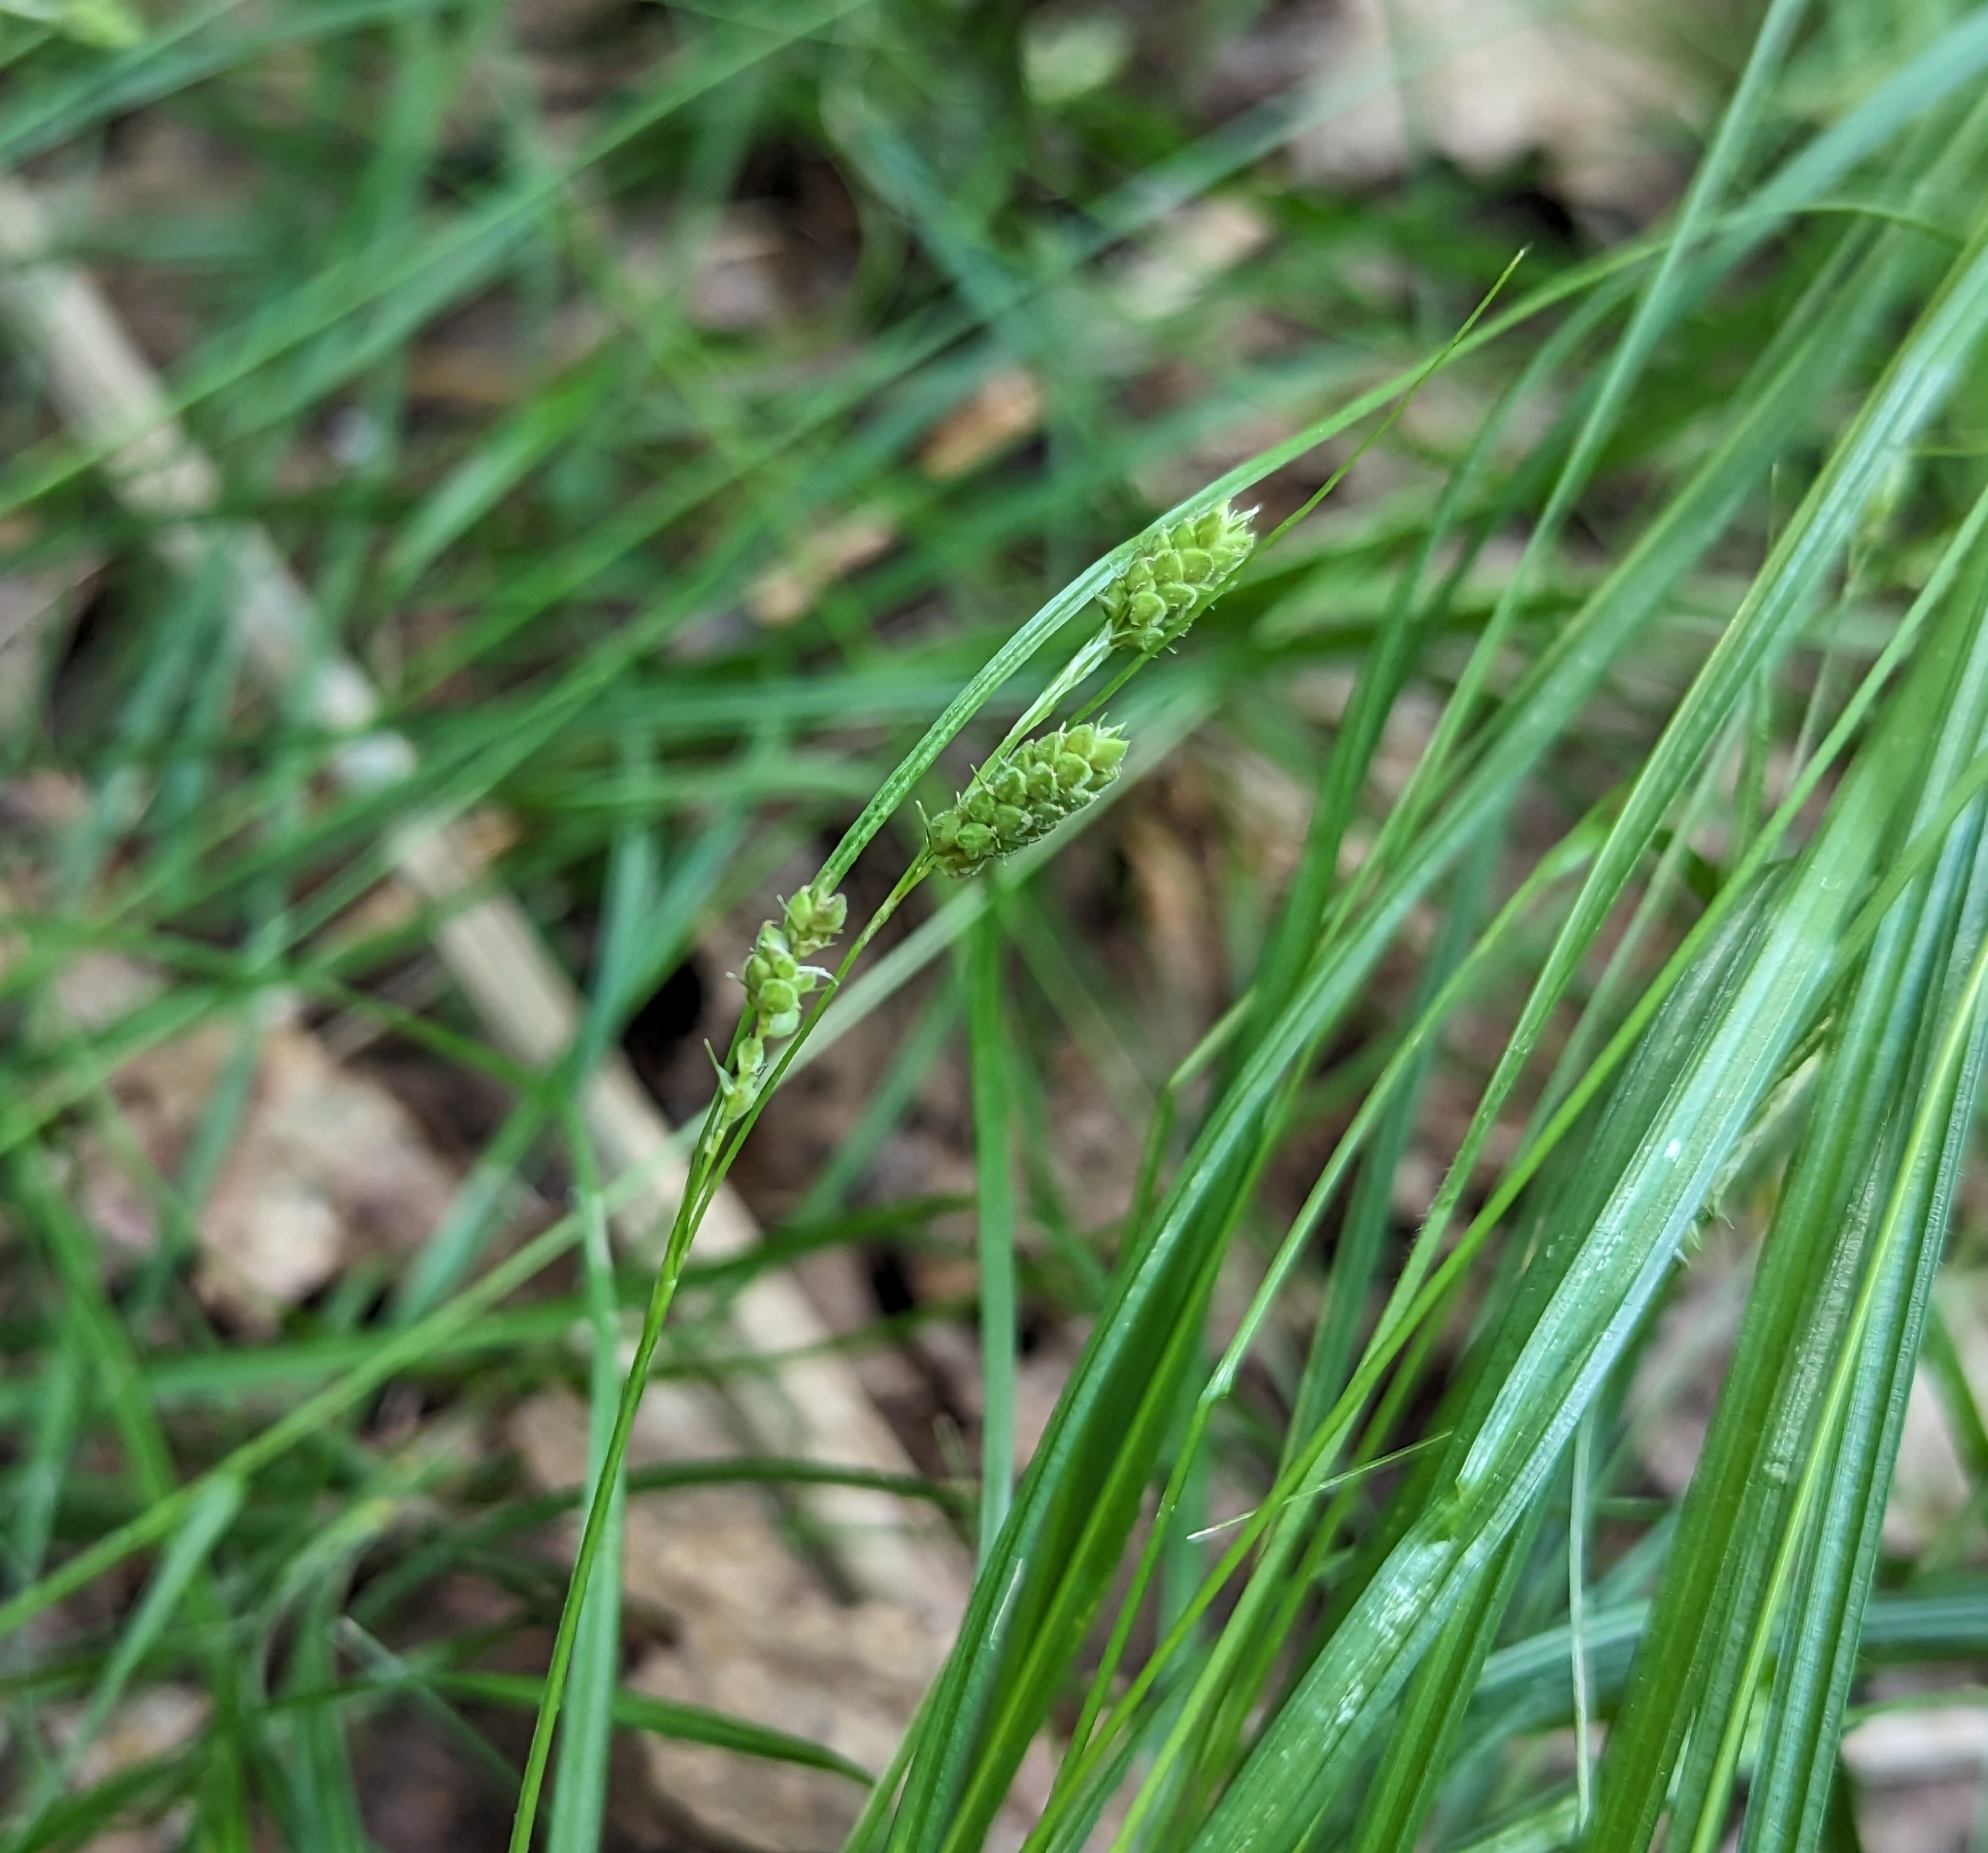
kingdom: Plantae
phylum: Tracheophyta
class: Liliopsida
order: Poales
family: Cyperaceae
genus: Carex
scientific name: Carex swanii
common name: Downy green sedge
